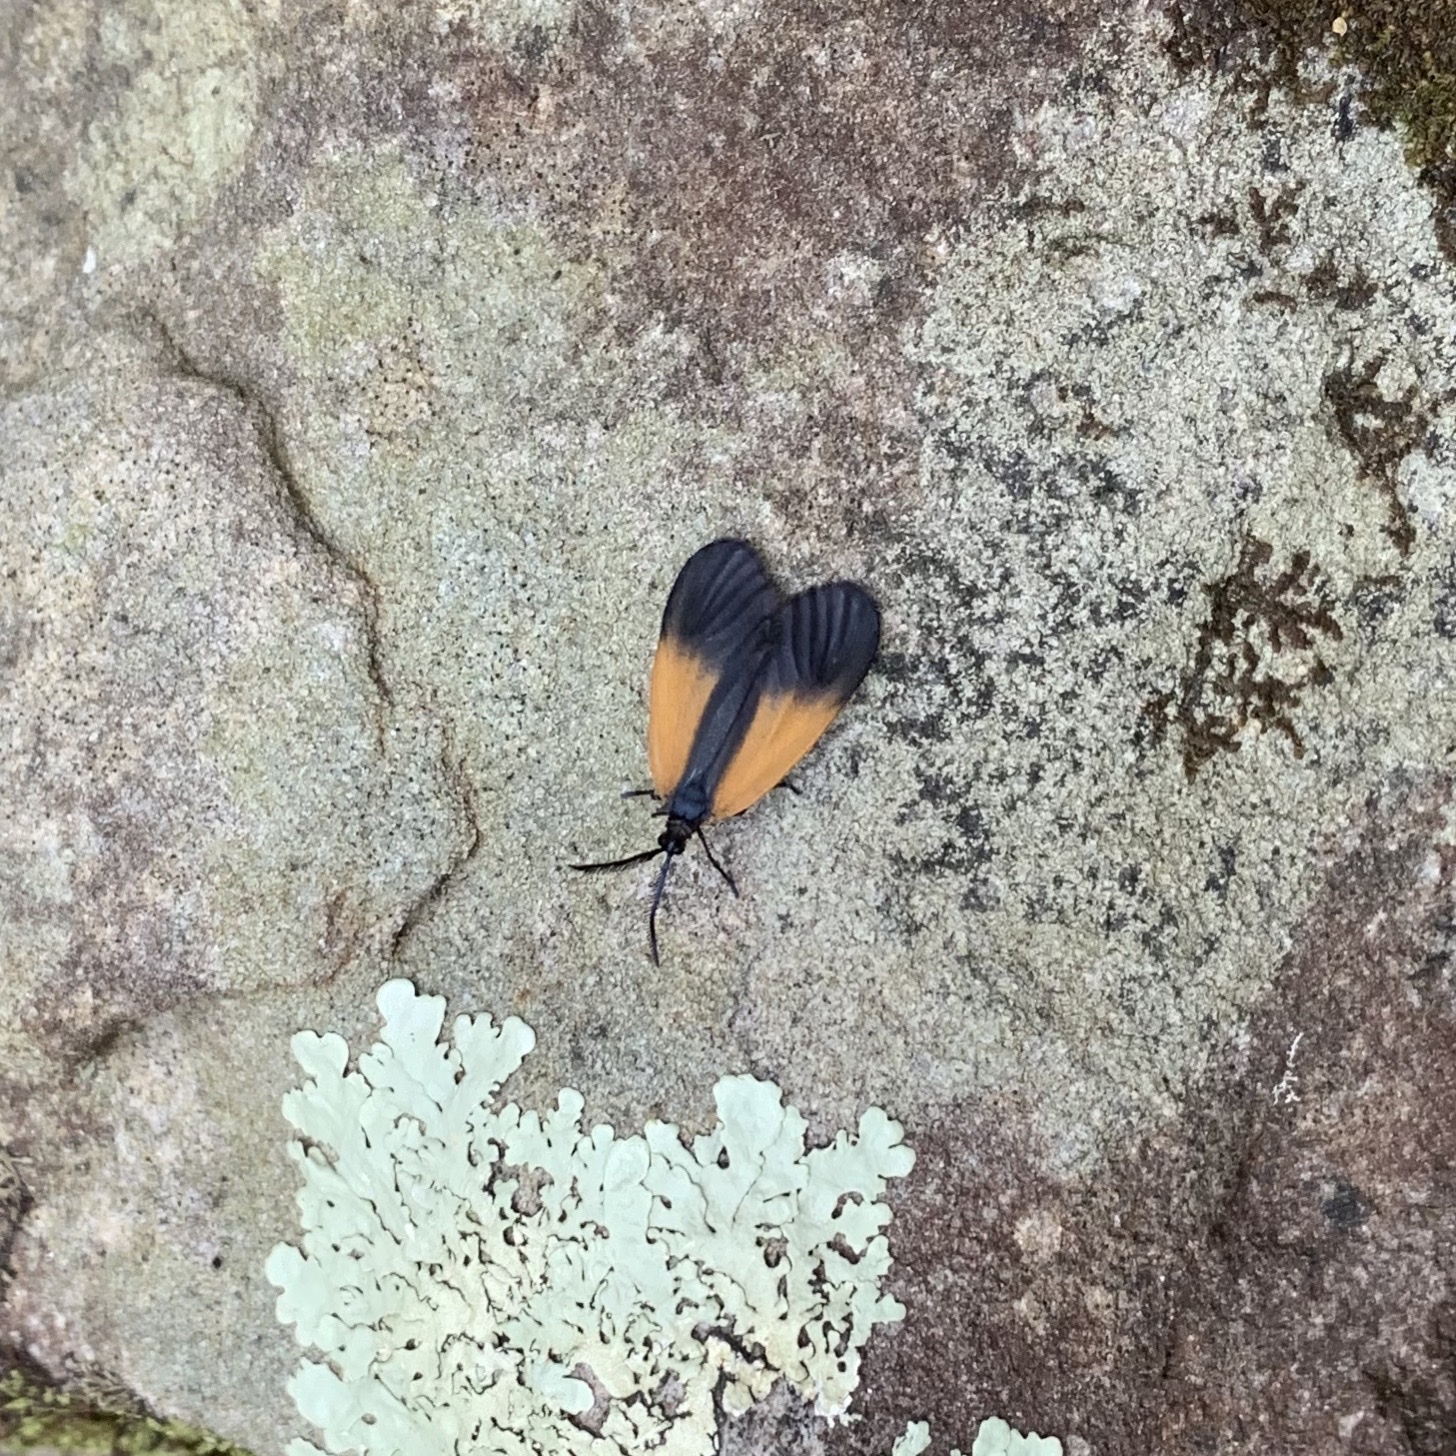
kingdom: Animalia
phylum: Arthropoda
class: Insecta
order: Lepidoptera
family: Zygaenidae
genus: Malthaca
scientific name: Malthaca dimidiata
